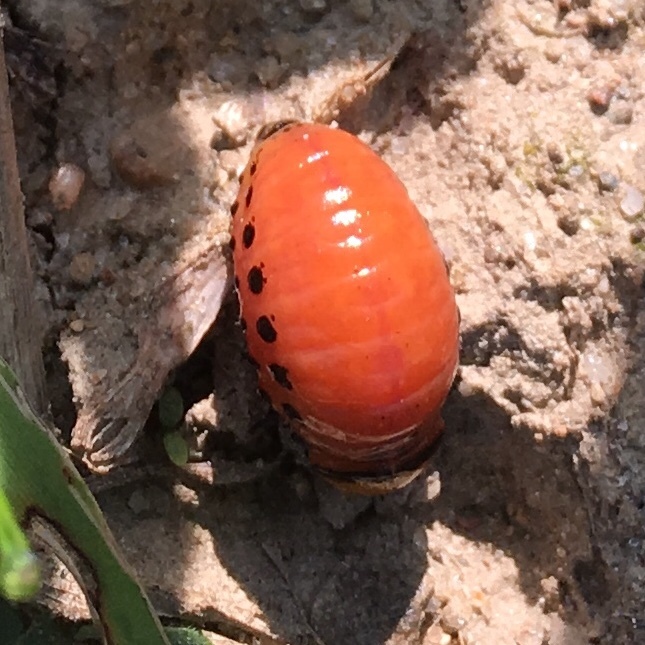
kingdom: Animalia
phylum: Arthropoda
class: Insecta
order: Coleoptera
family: Chrysomelidae
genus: Leptinotarsa
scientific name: Leptinotarsa decemlineata
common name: Colorado potato beetle
